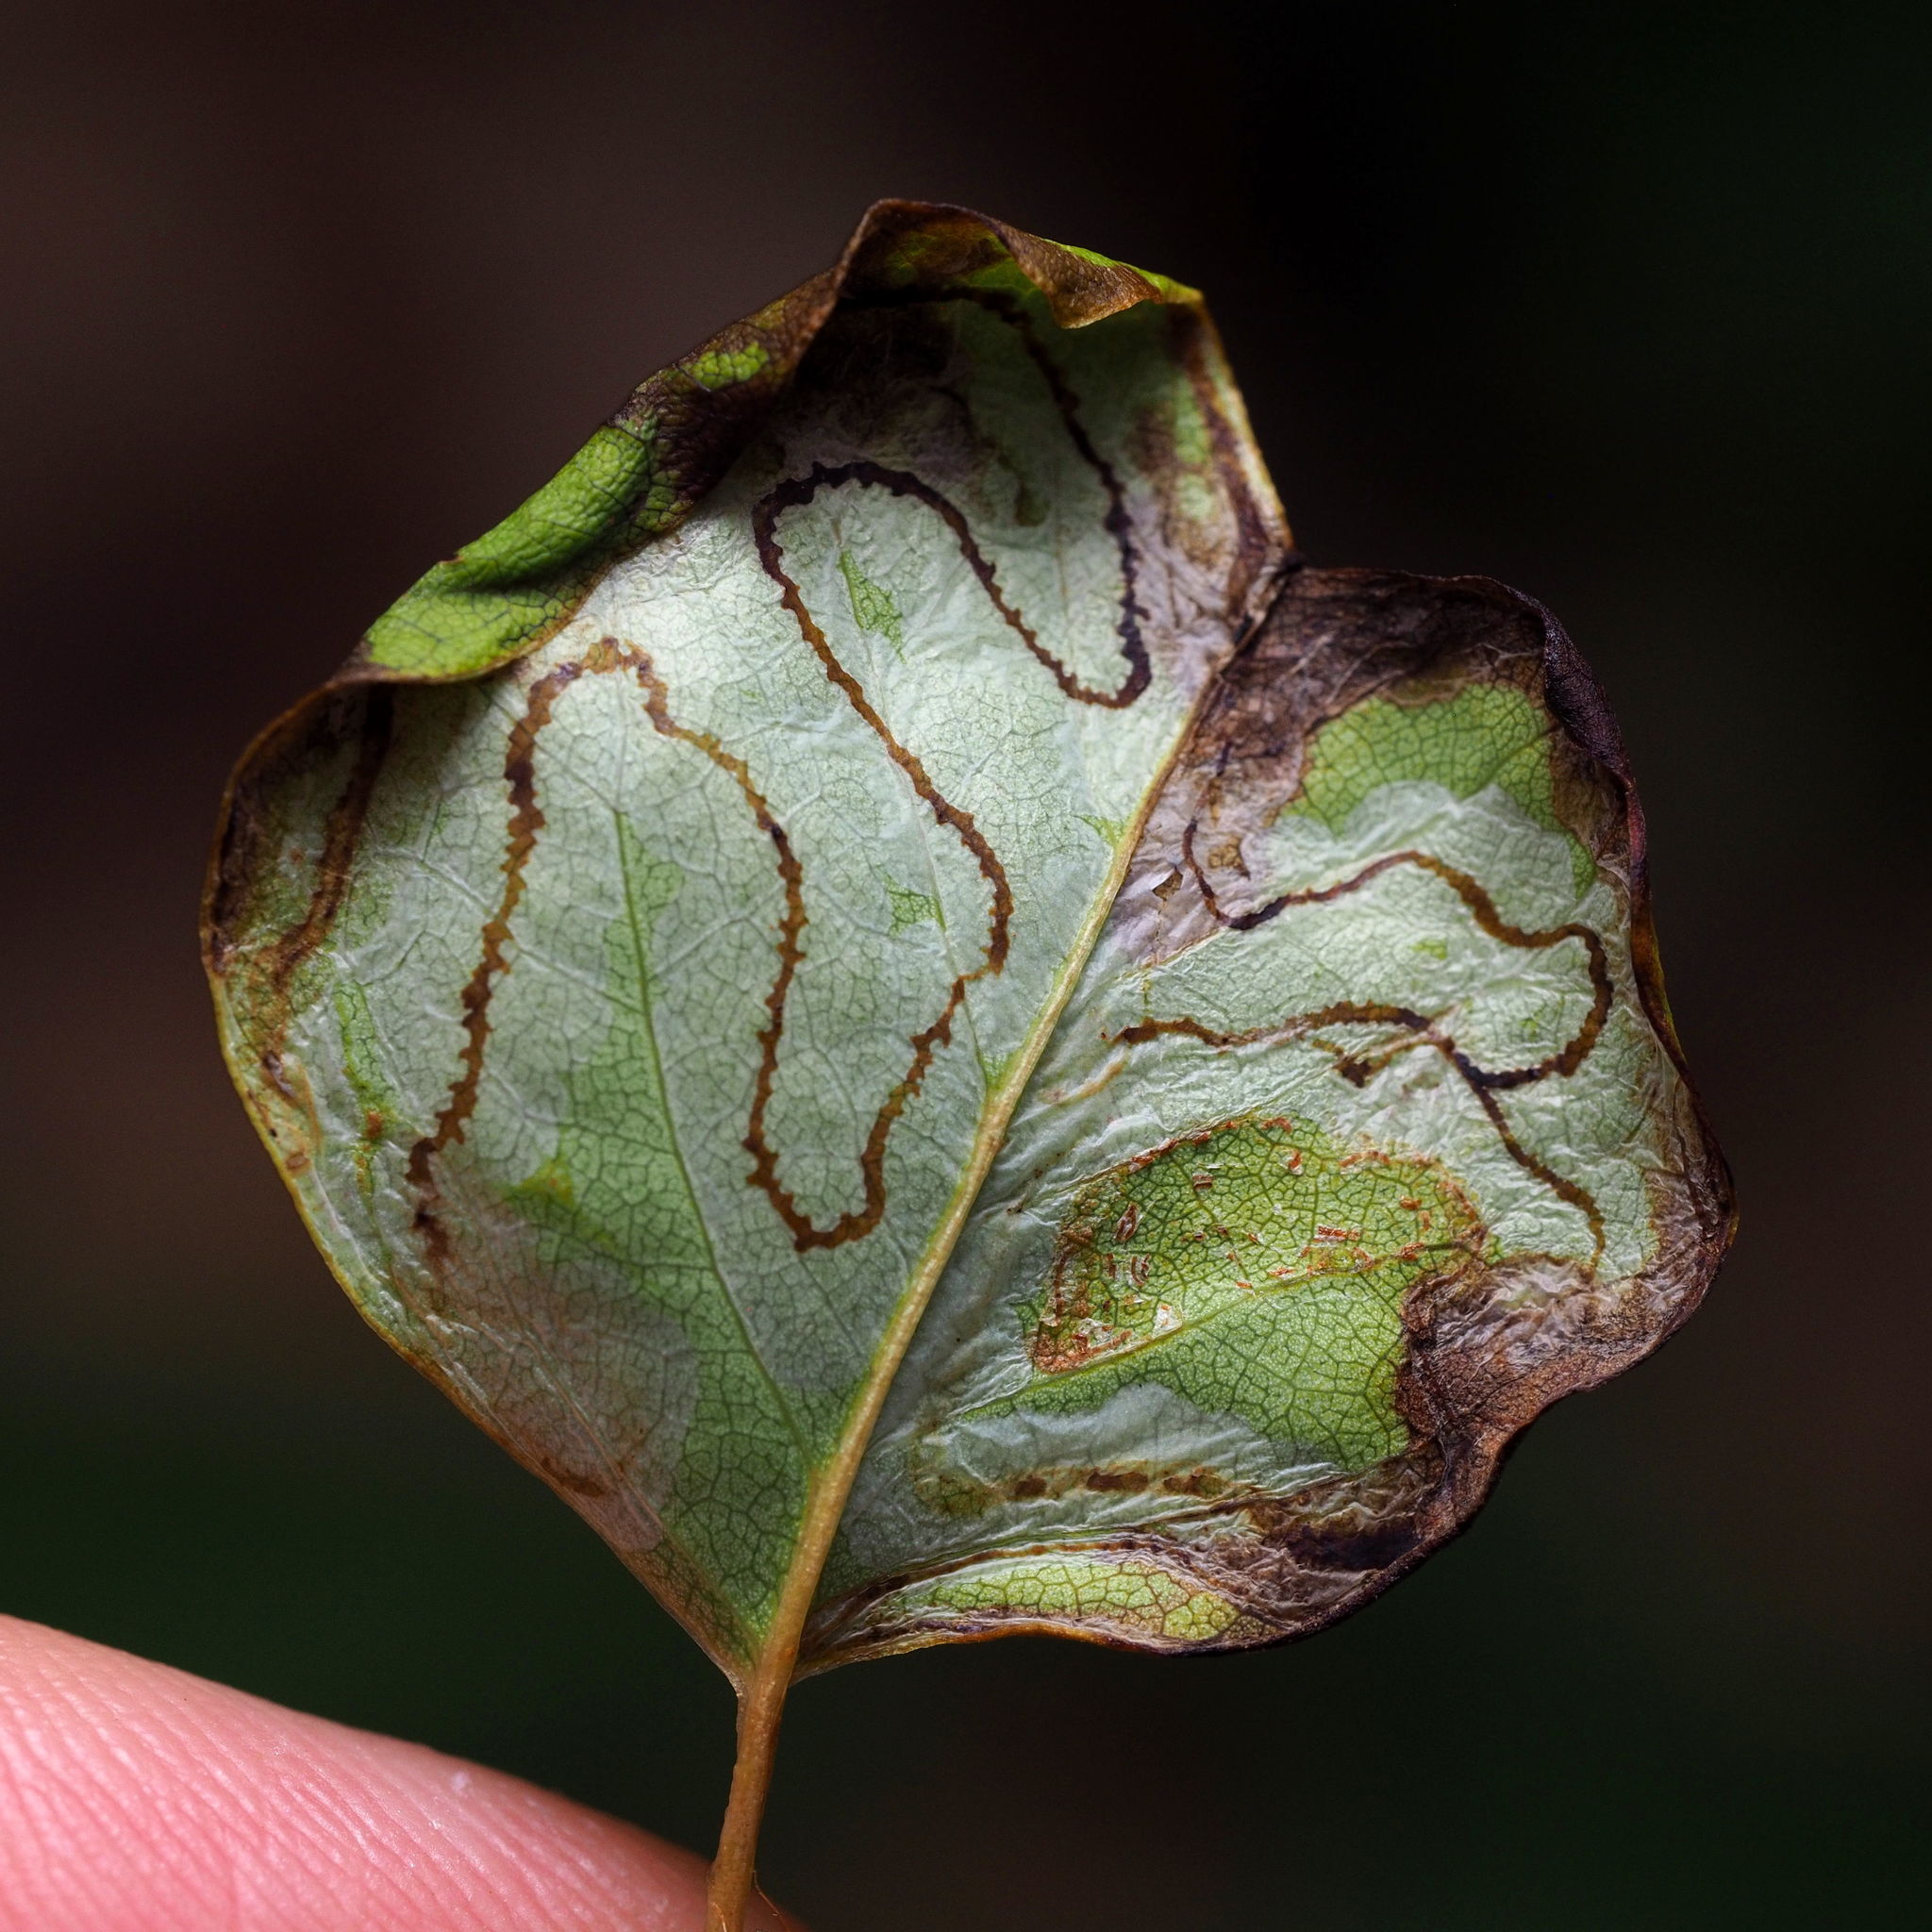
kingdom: Animalia
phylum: Arthropoda
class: Insecta
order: Lepidoptera
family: Gracillariidae
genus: Phyllocnistis
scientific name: Phyllocnistis liriodendronella
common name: Tulip tree leaf miner
